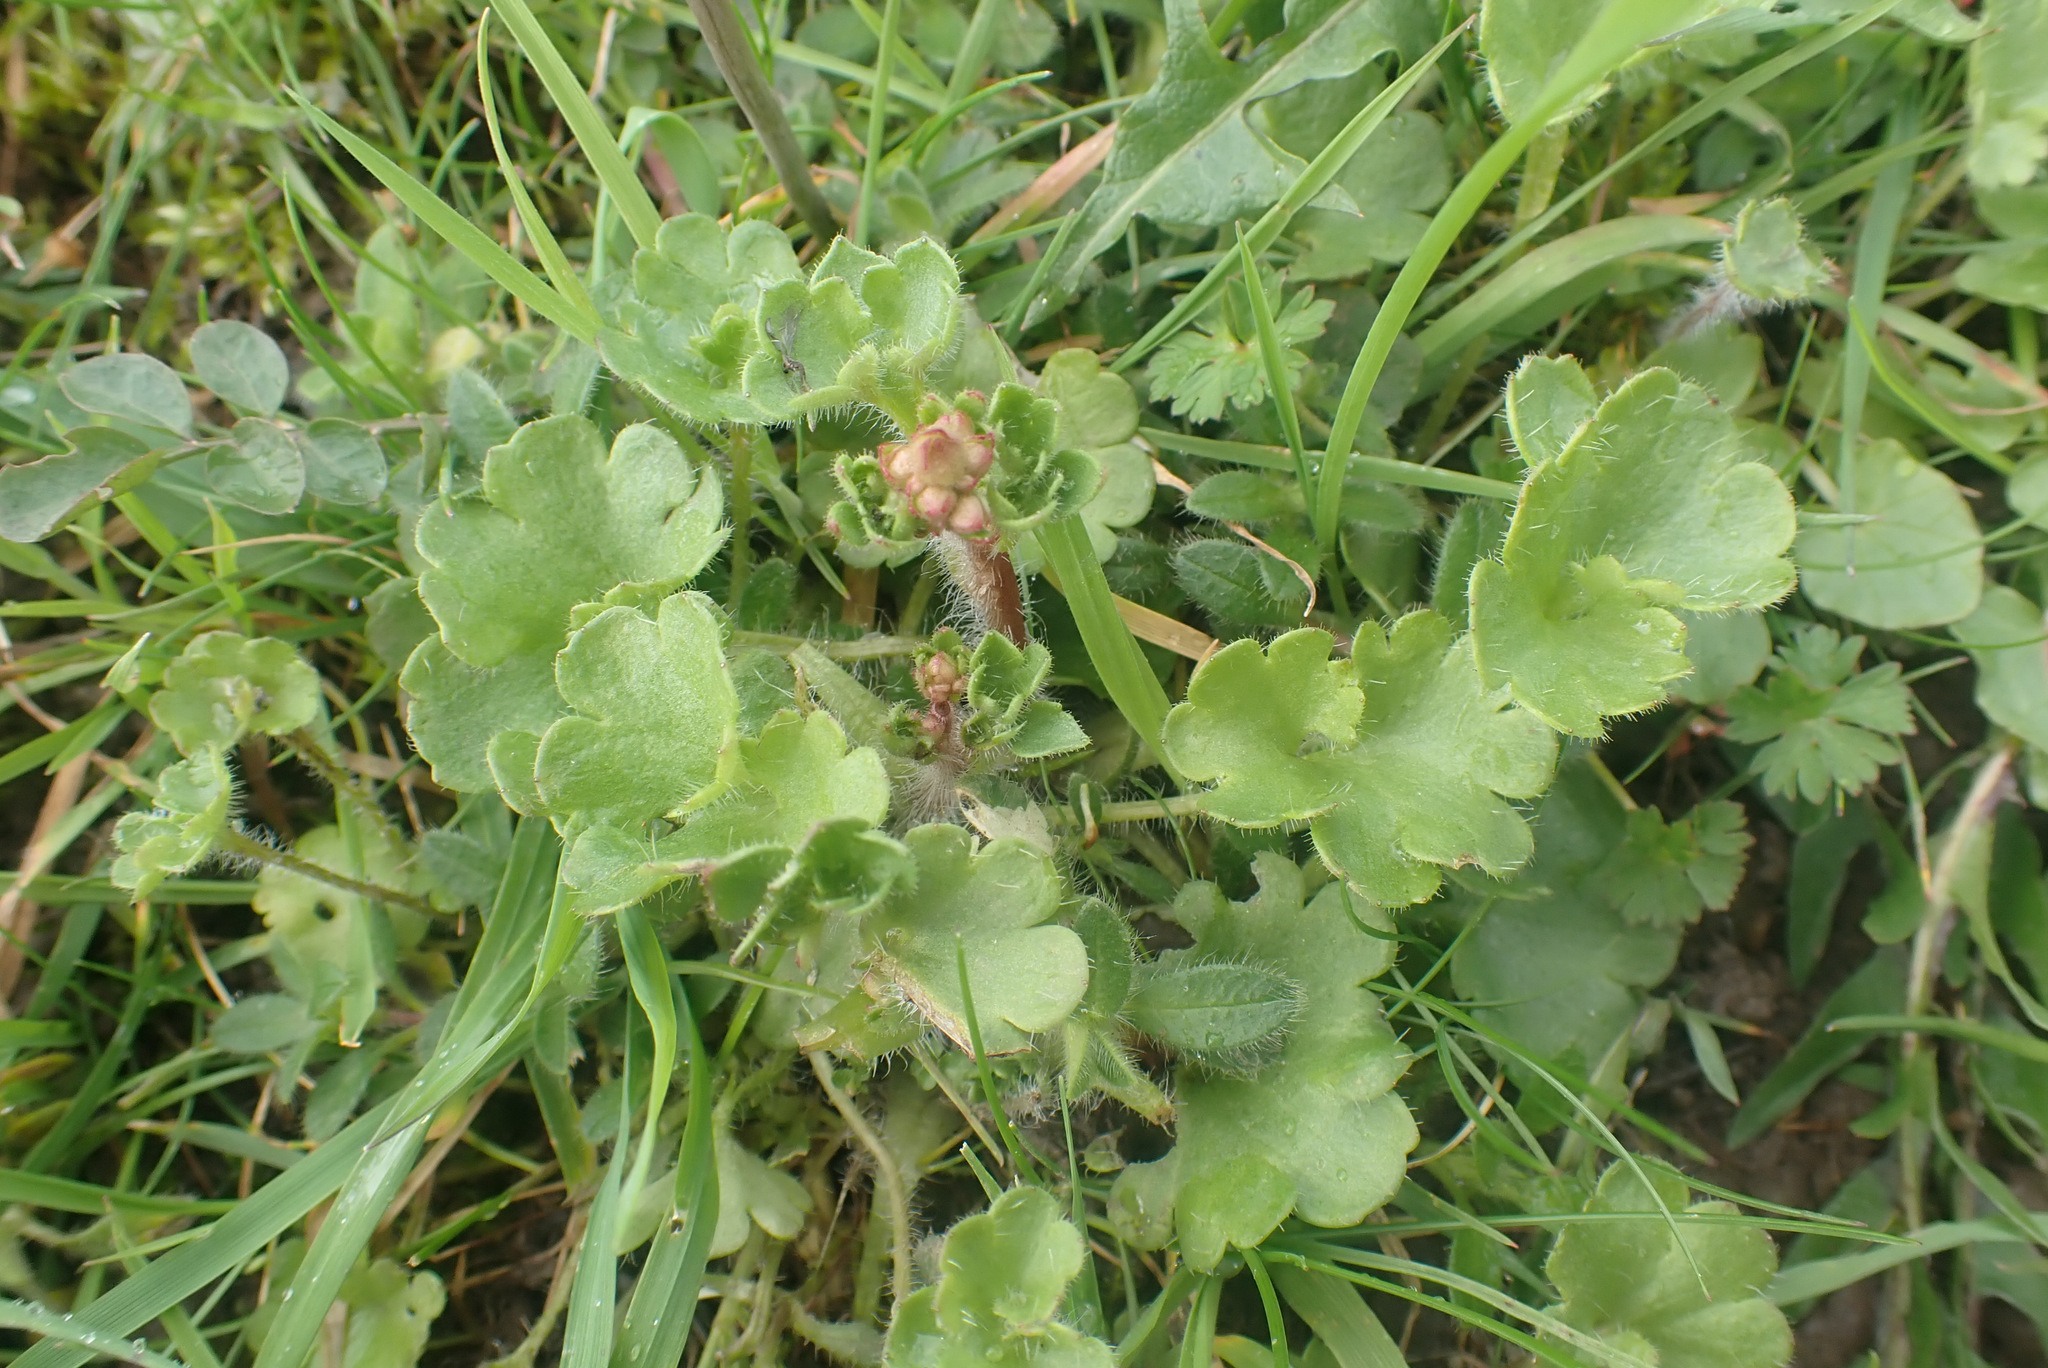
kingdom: Plantae
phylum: Tracheophyta
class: Magnoliopsida
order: Saxifragales
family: Saxifragaceae
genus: Saxifraga
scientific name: Saxifraga granulata
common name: Meadow saxifrage
